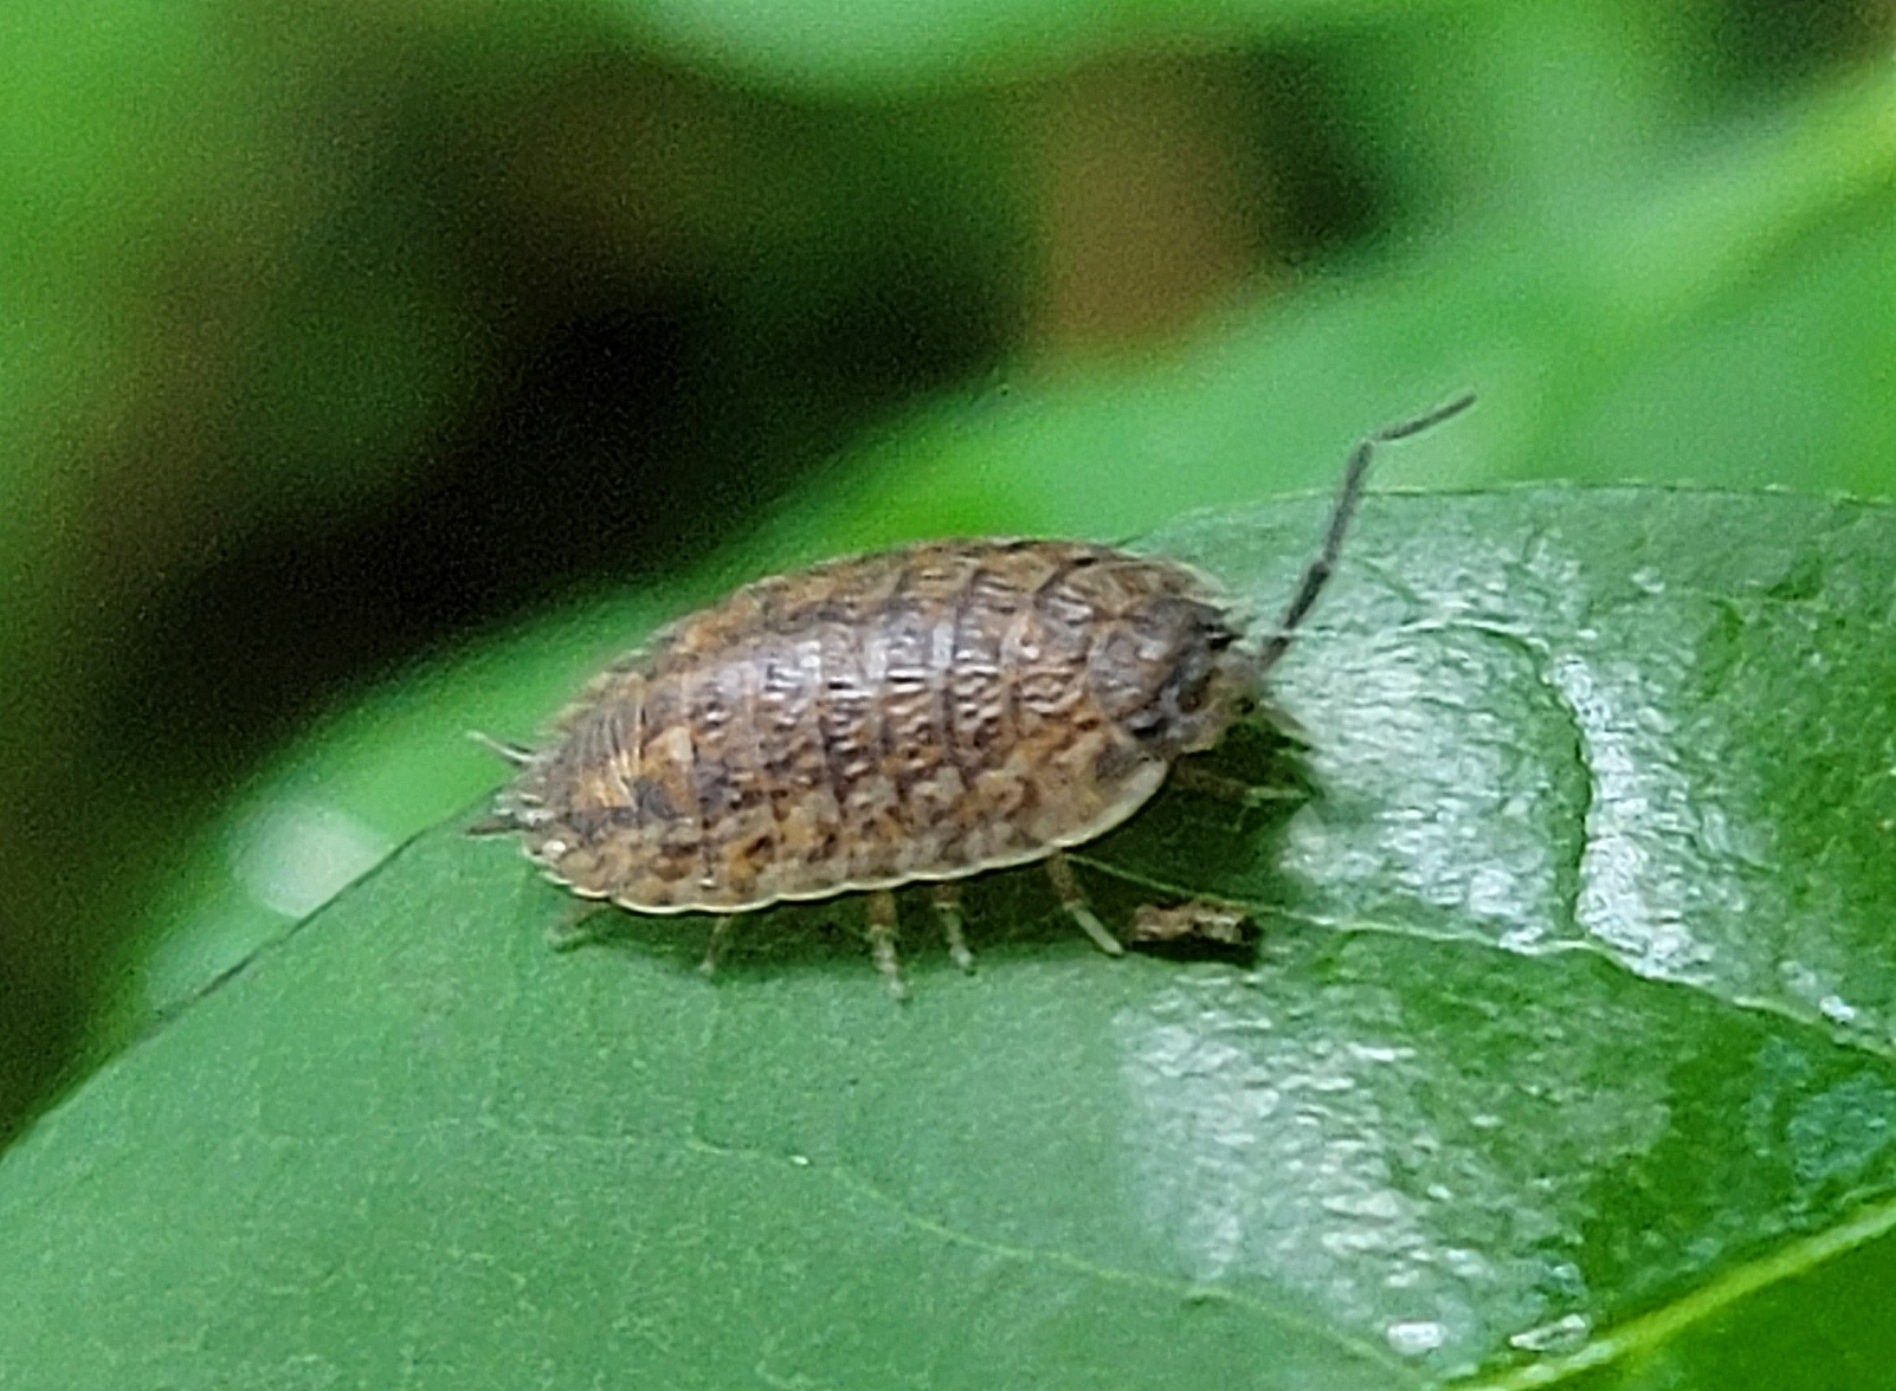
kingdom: Animalia
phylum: Arthropoda
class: Malacostraca
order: Isopoda
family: Trachelipodidae
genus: Trachelipus
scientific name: Trachelipus rathkii
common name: Isopod
